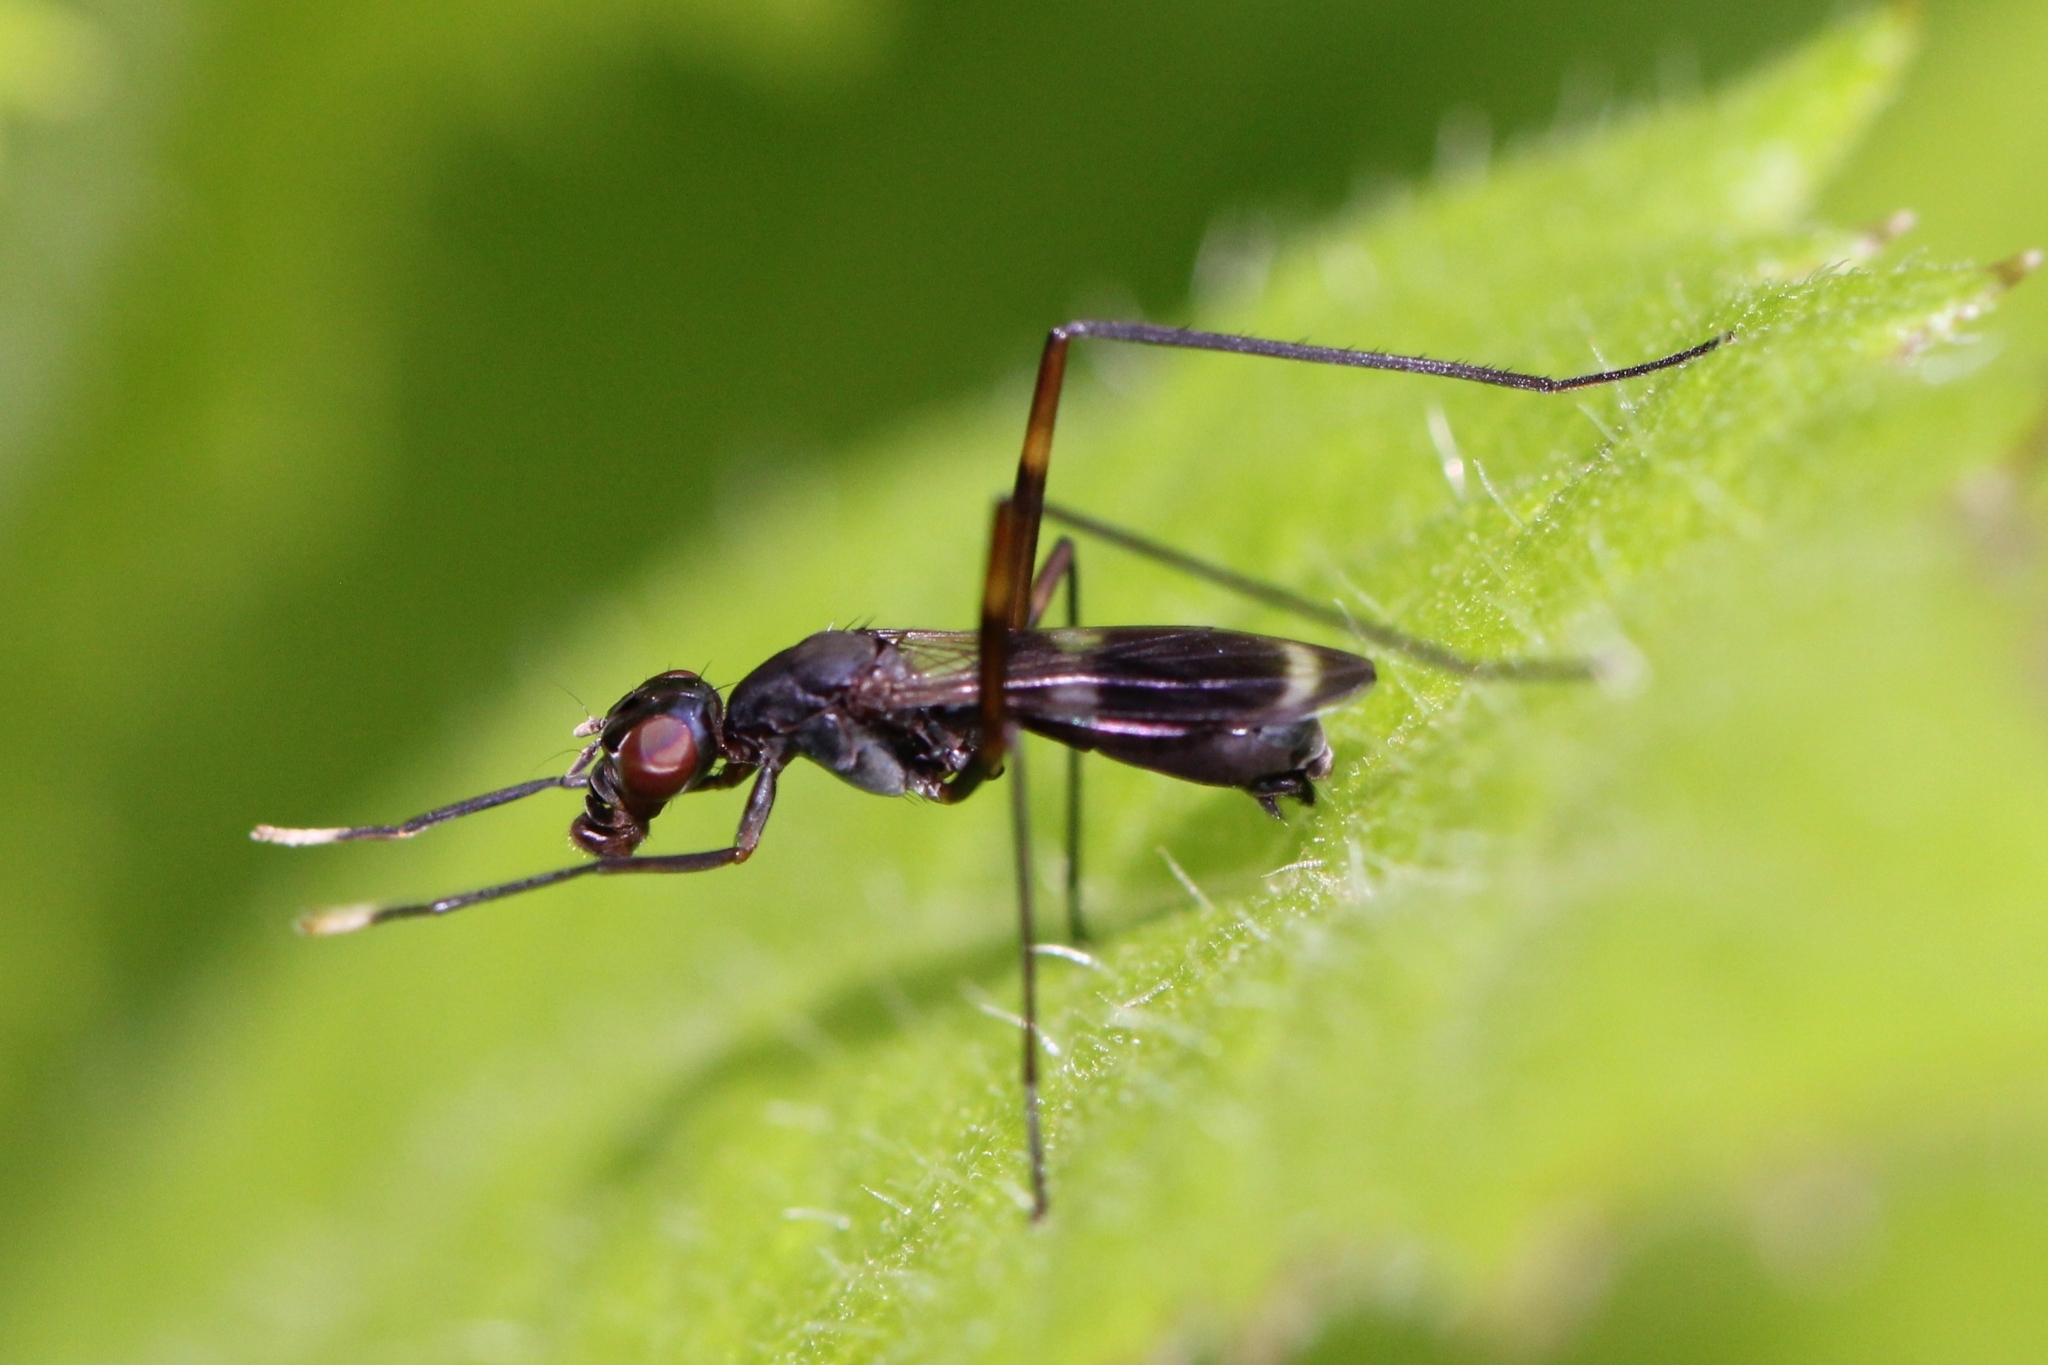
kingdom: Animalia
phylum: Arthropoda
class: Insecta
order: Diptera
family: Micropezidae
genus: Taeniaptera
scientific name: Taeniaptera trivittata
